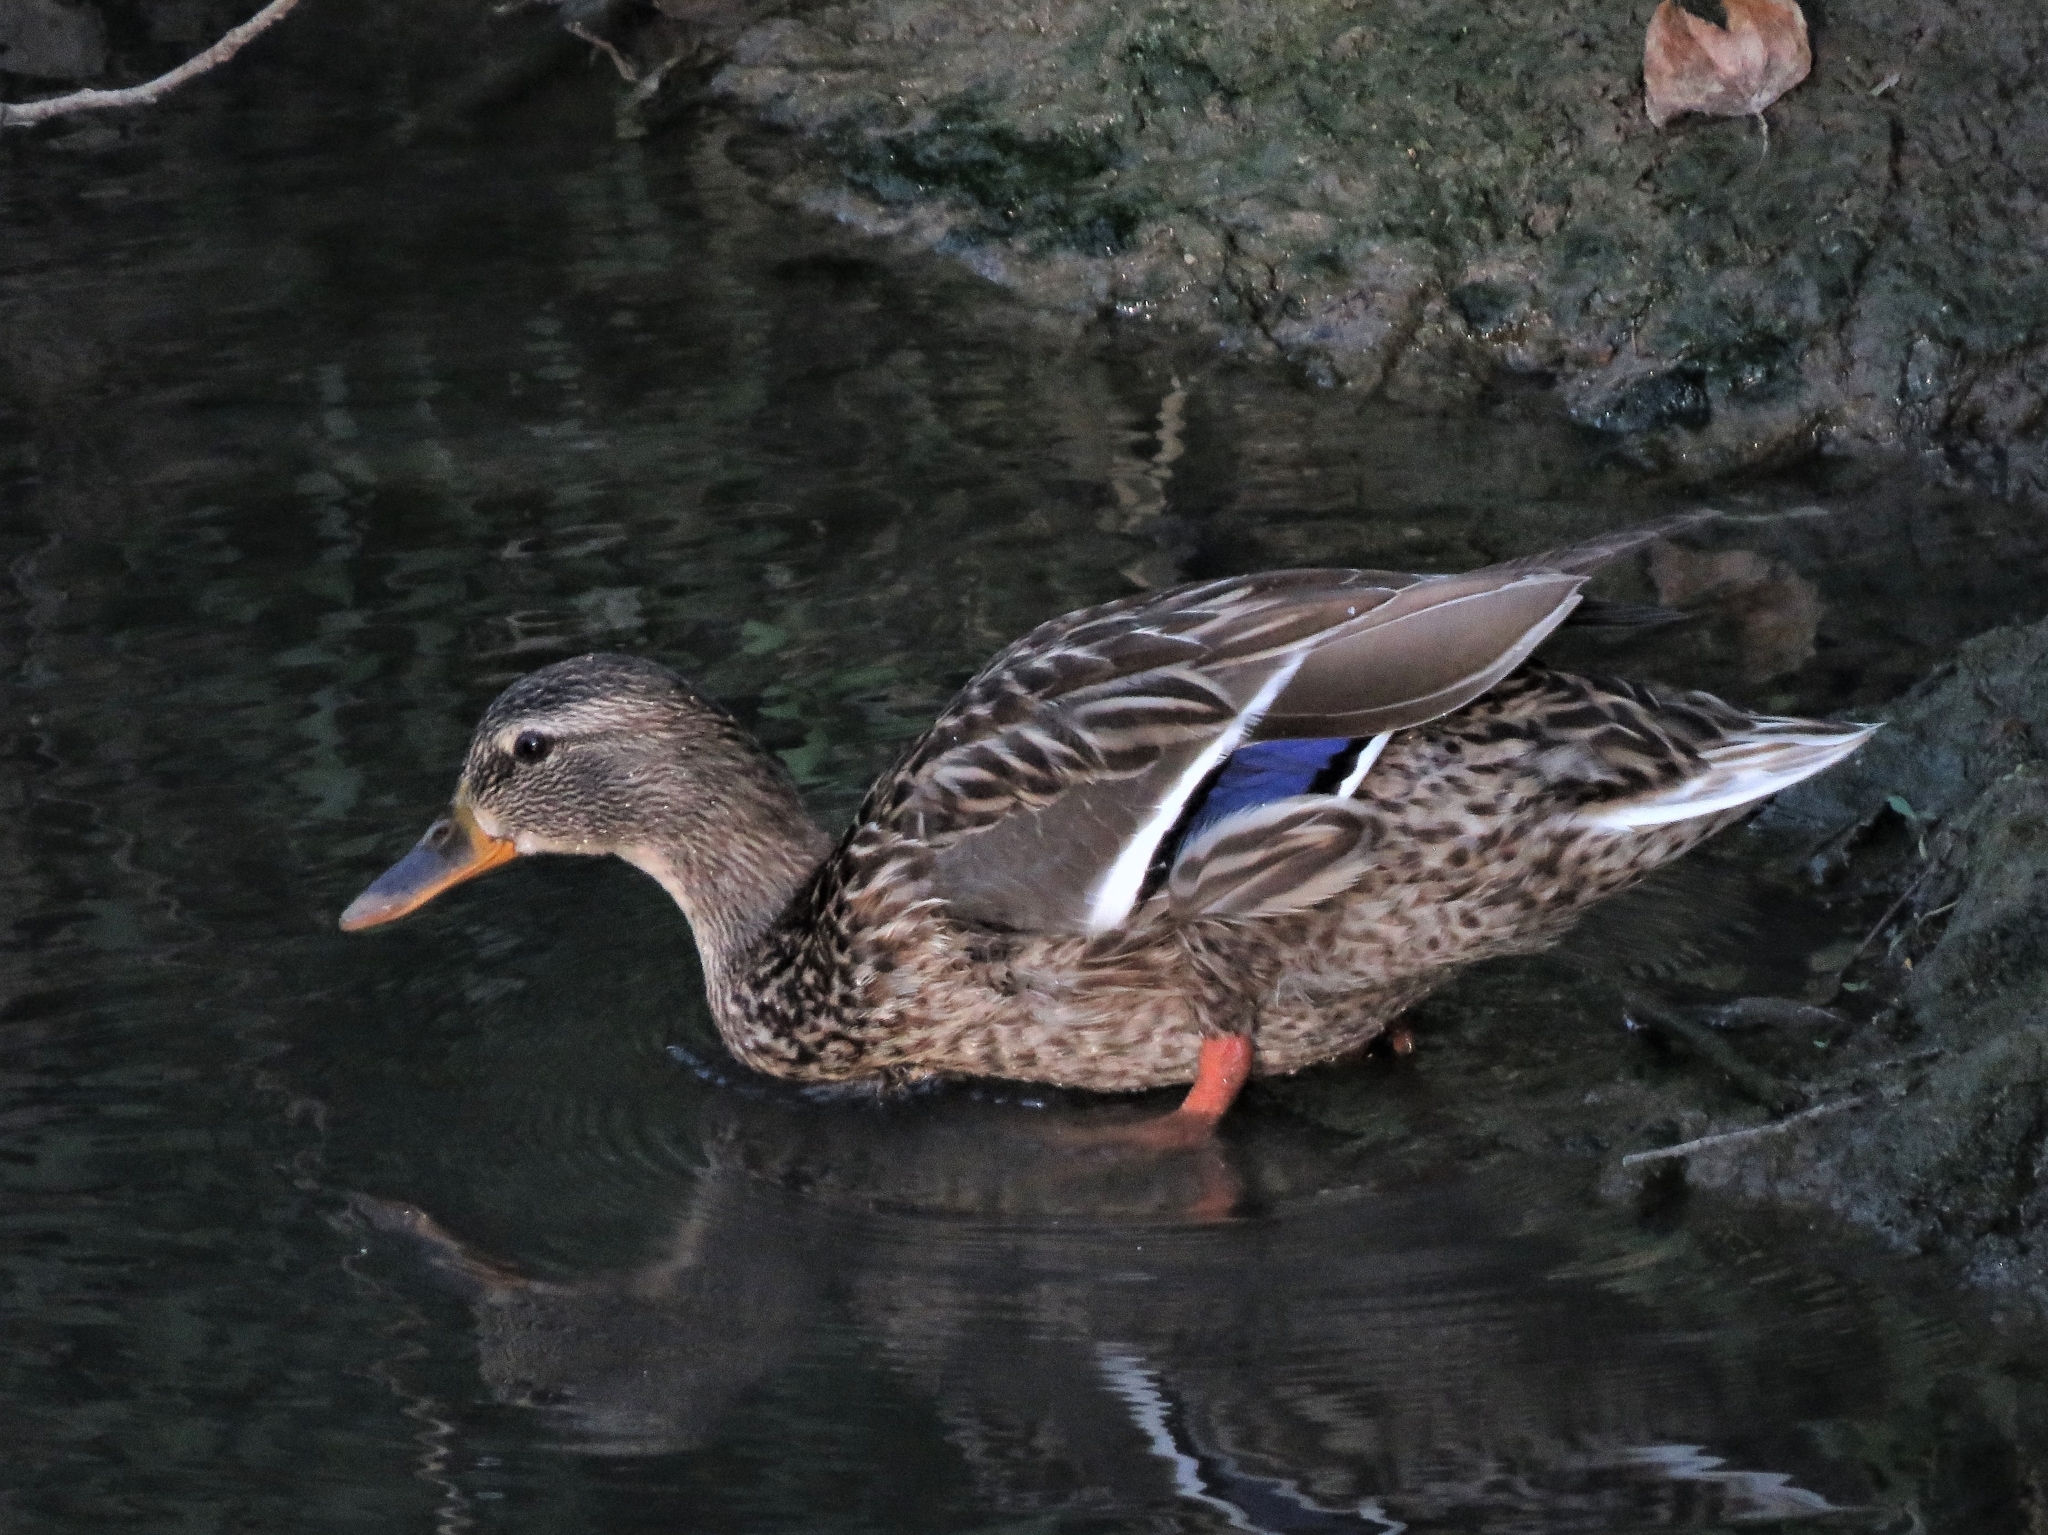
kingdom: Animalia
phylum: Chordata
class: Aves
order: Anseriformes
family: Anatidae
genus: Anas
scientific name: Anas platyrhynchos
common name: Mallard
